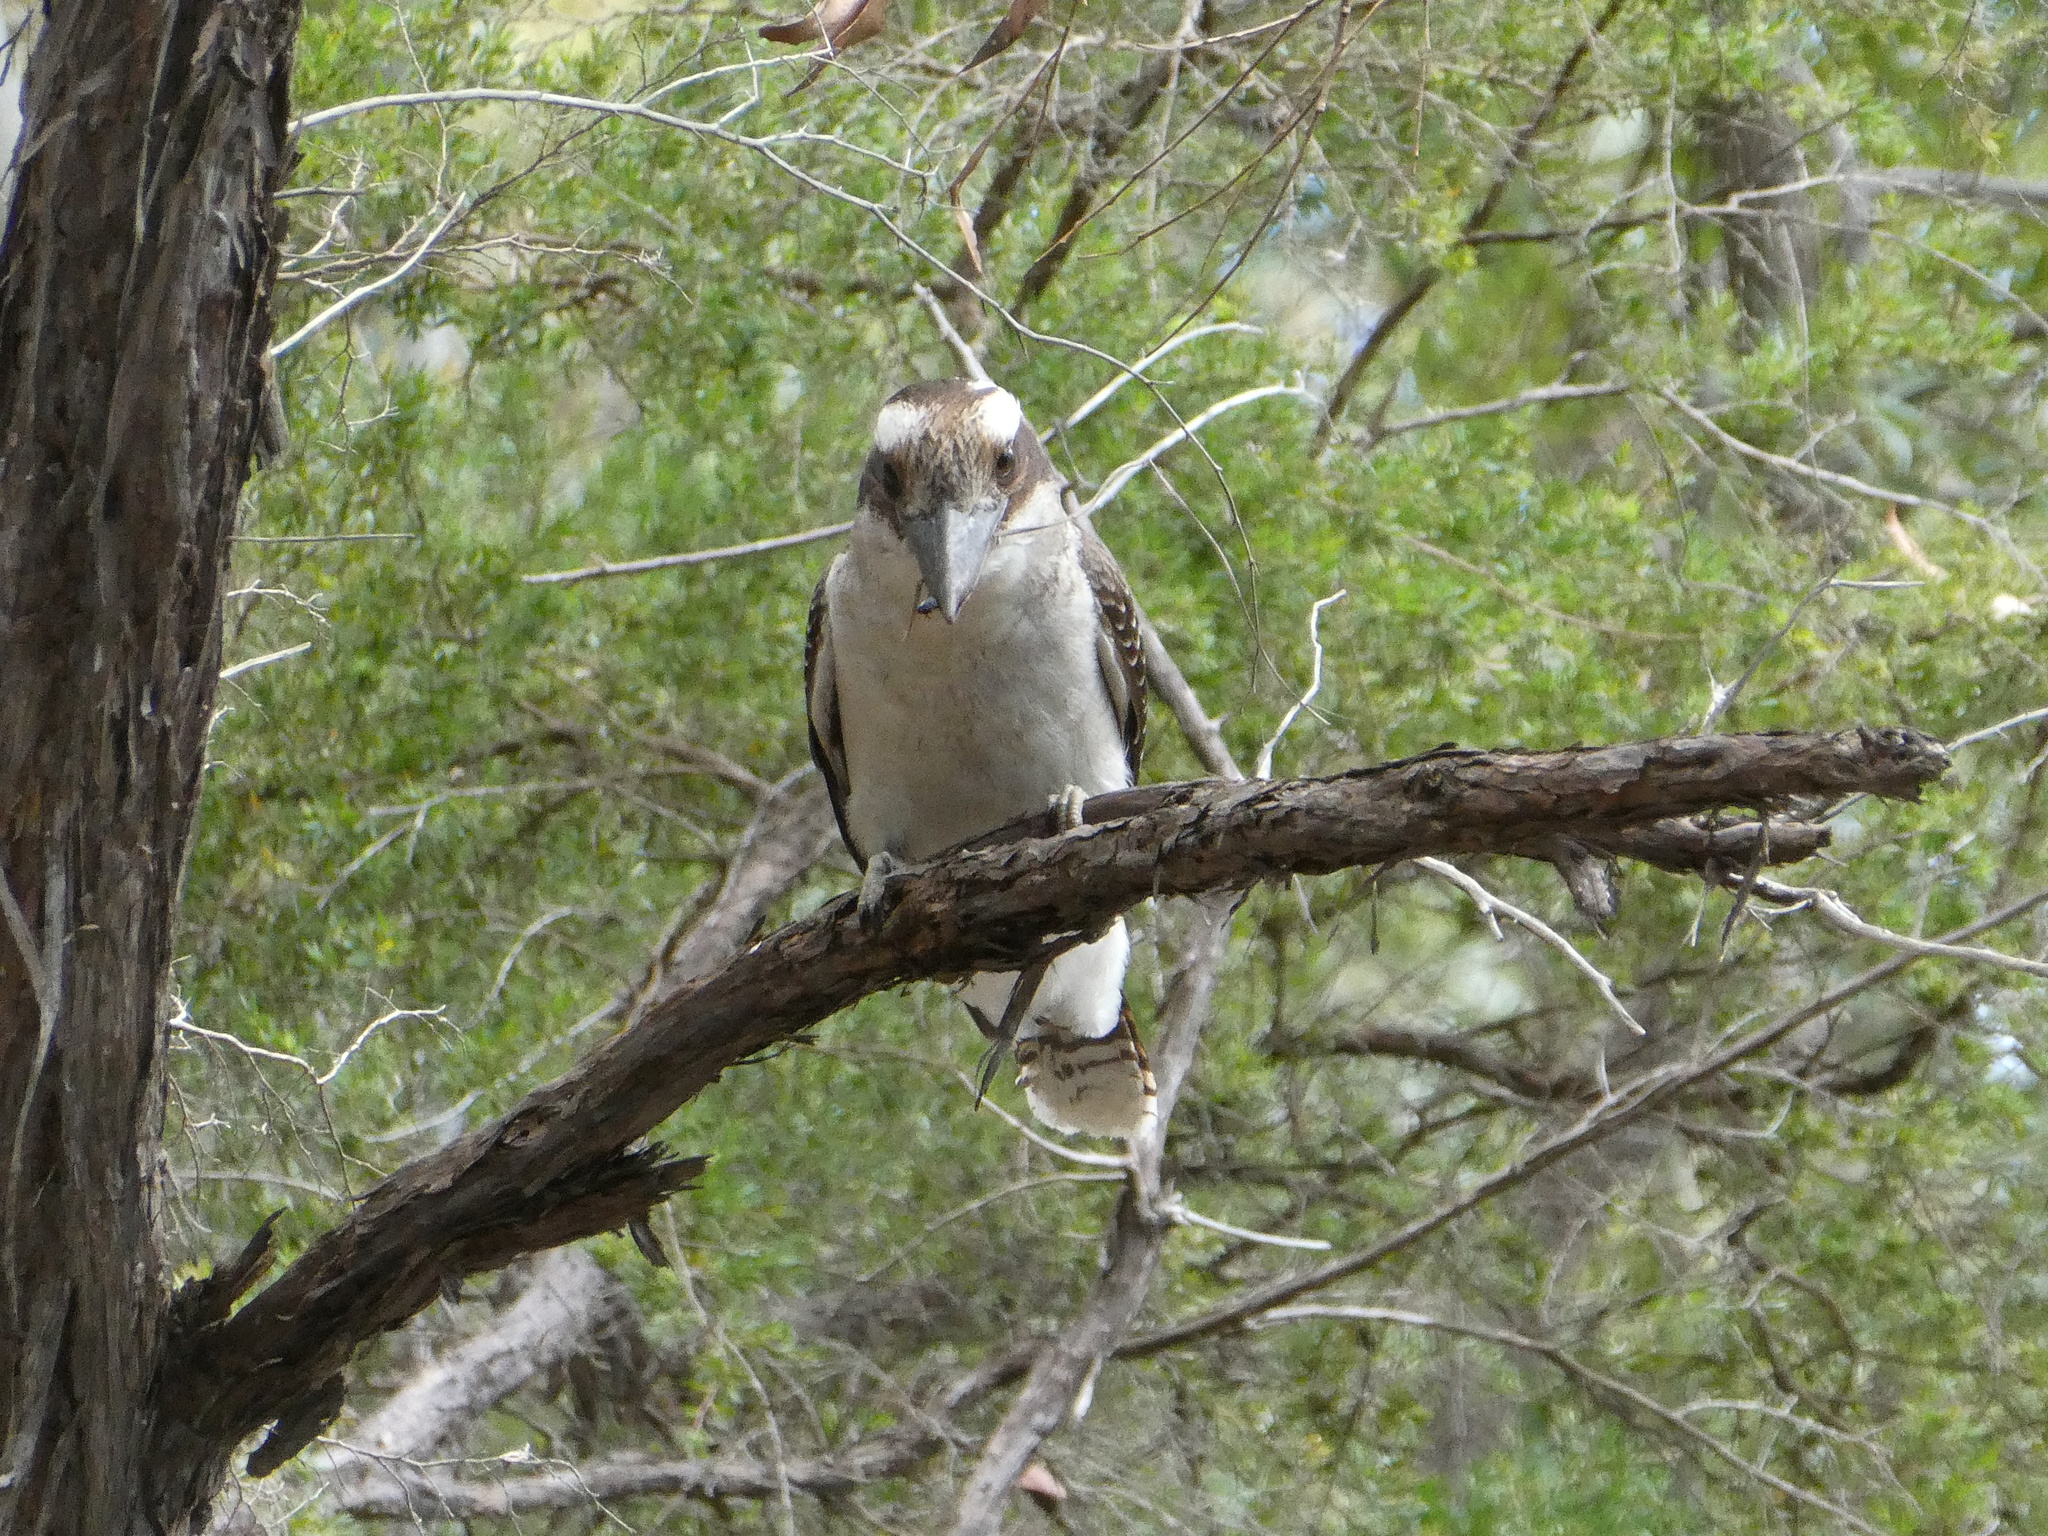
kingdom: Animalia
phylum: Chordata
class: Aves
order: Coraciiformes
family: Alcedinidae
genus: Dacelo
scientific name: Dacelo novaeguineae
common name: Laughing kookaburra
